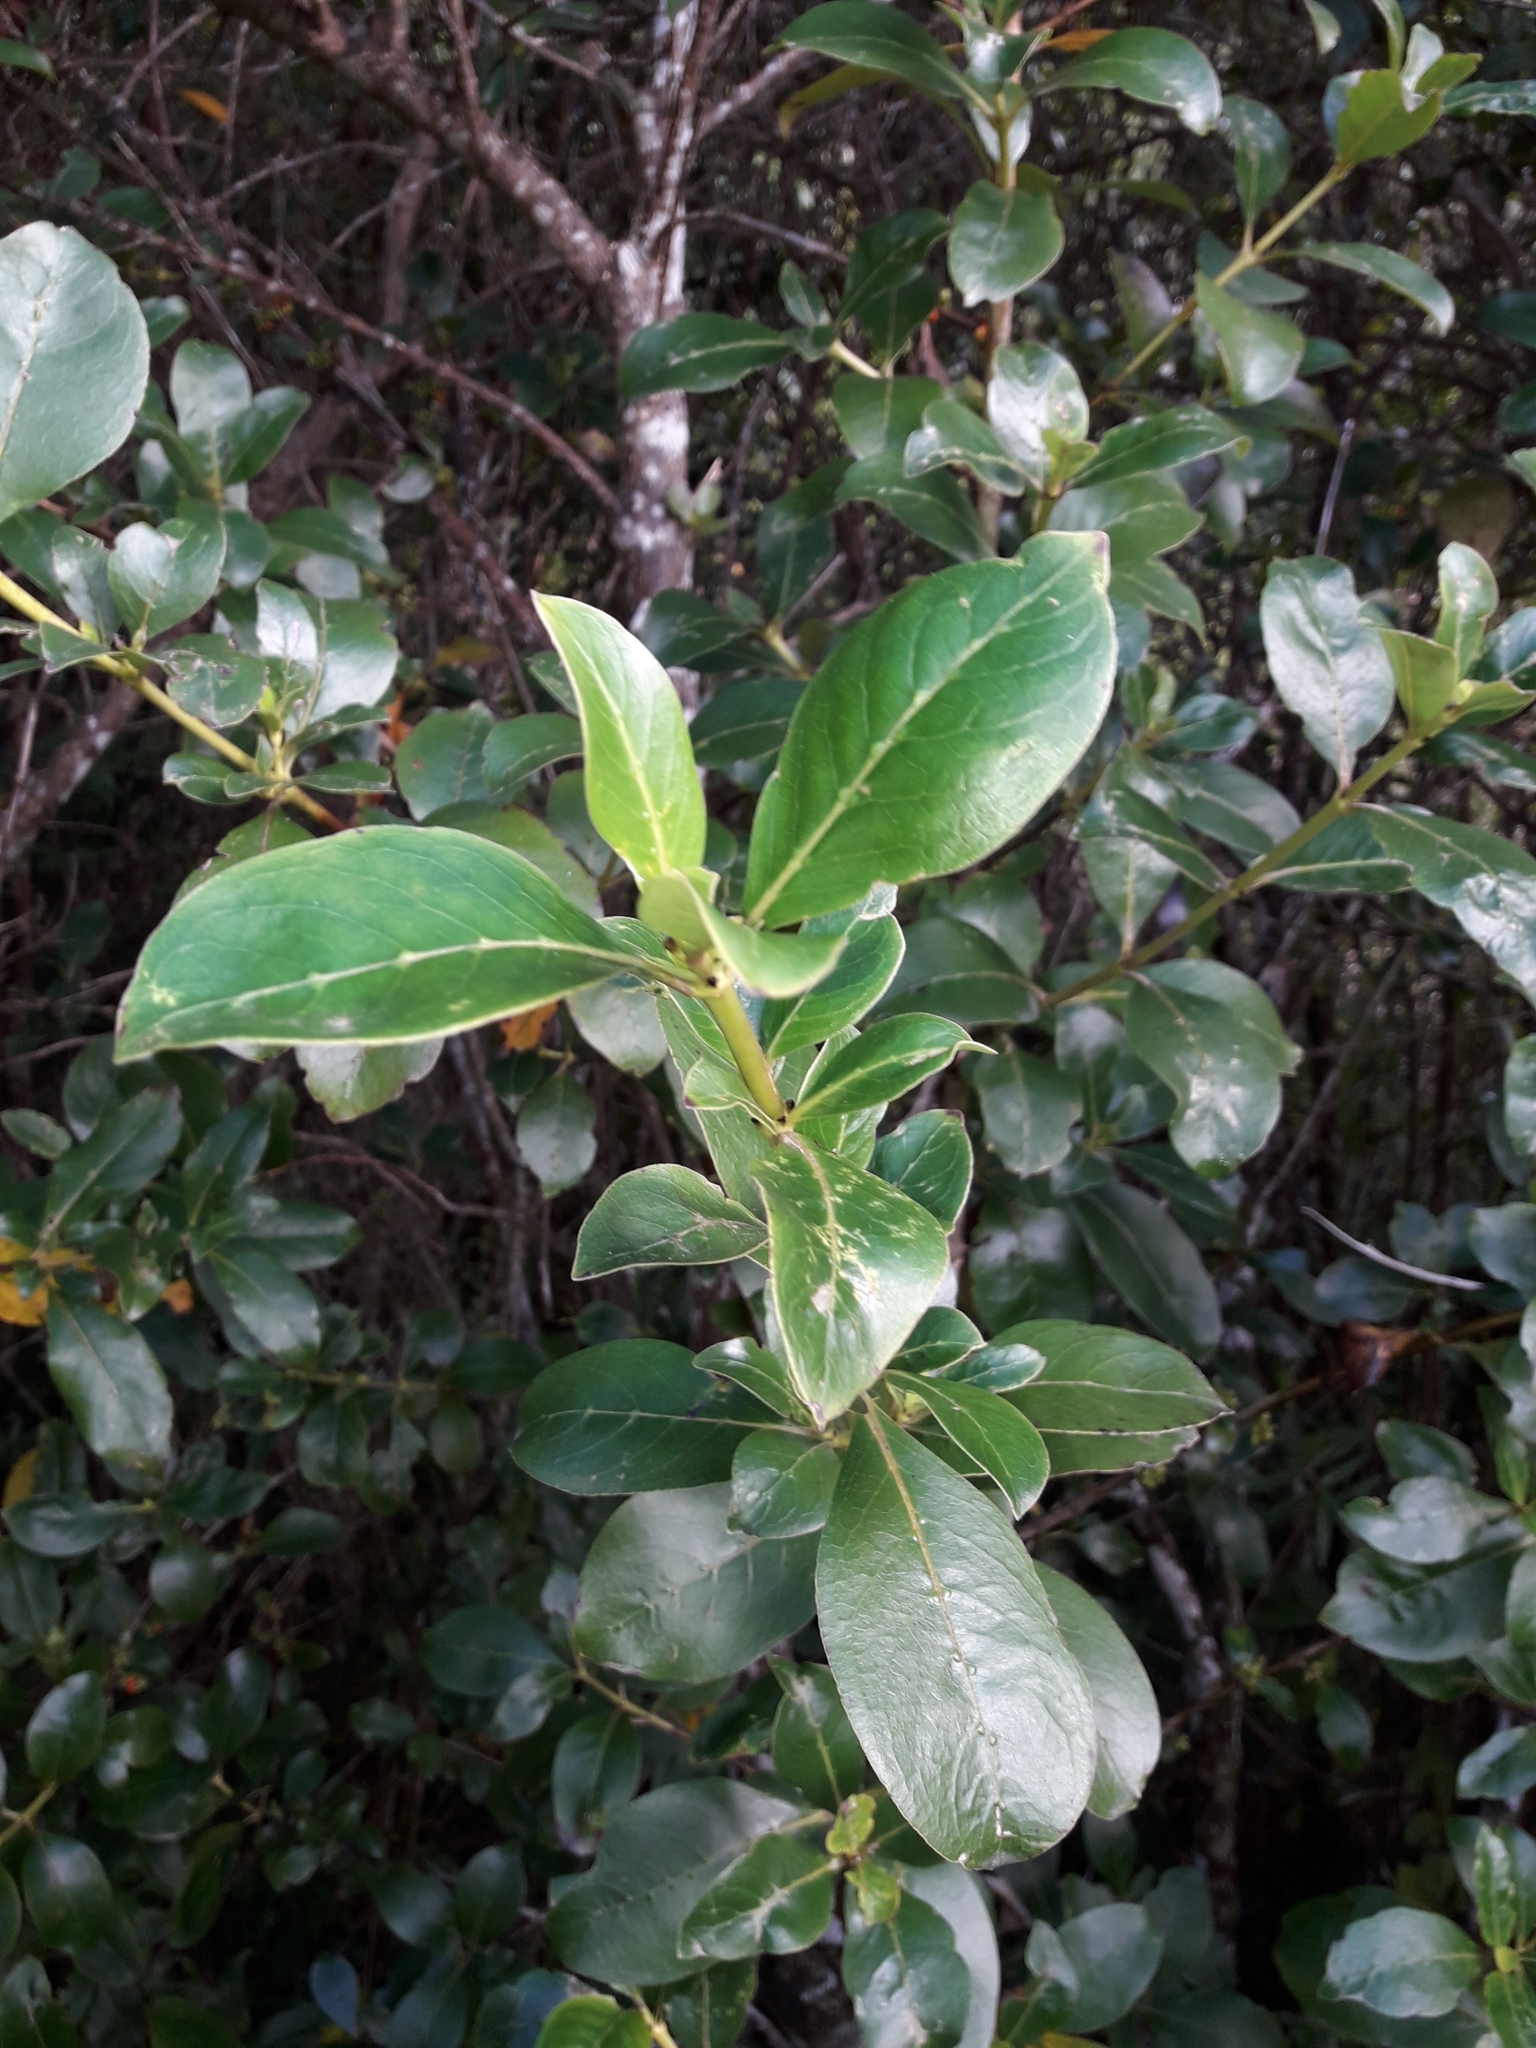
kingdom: Plantae
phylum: Tracheophyta
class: Magnoliopsida
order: Gentianales
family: Rubiaceae
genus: Coprosma
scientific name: Coprosma robusta
